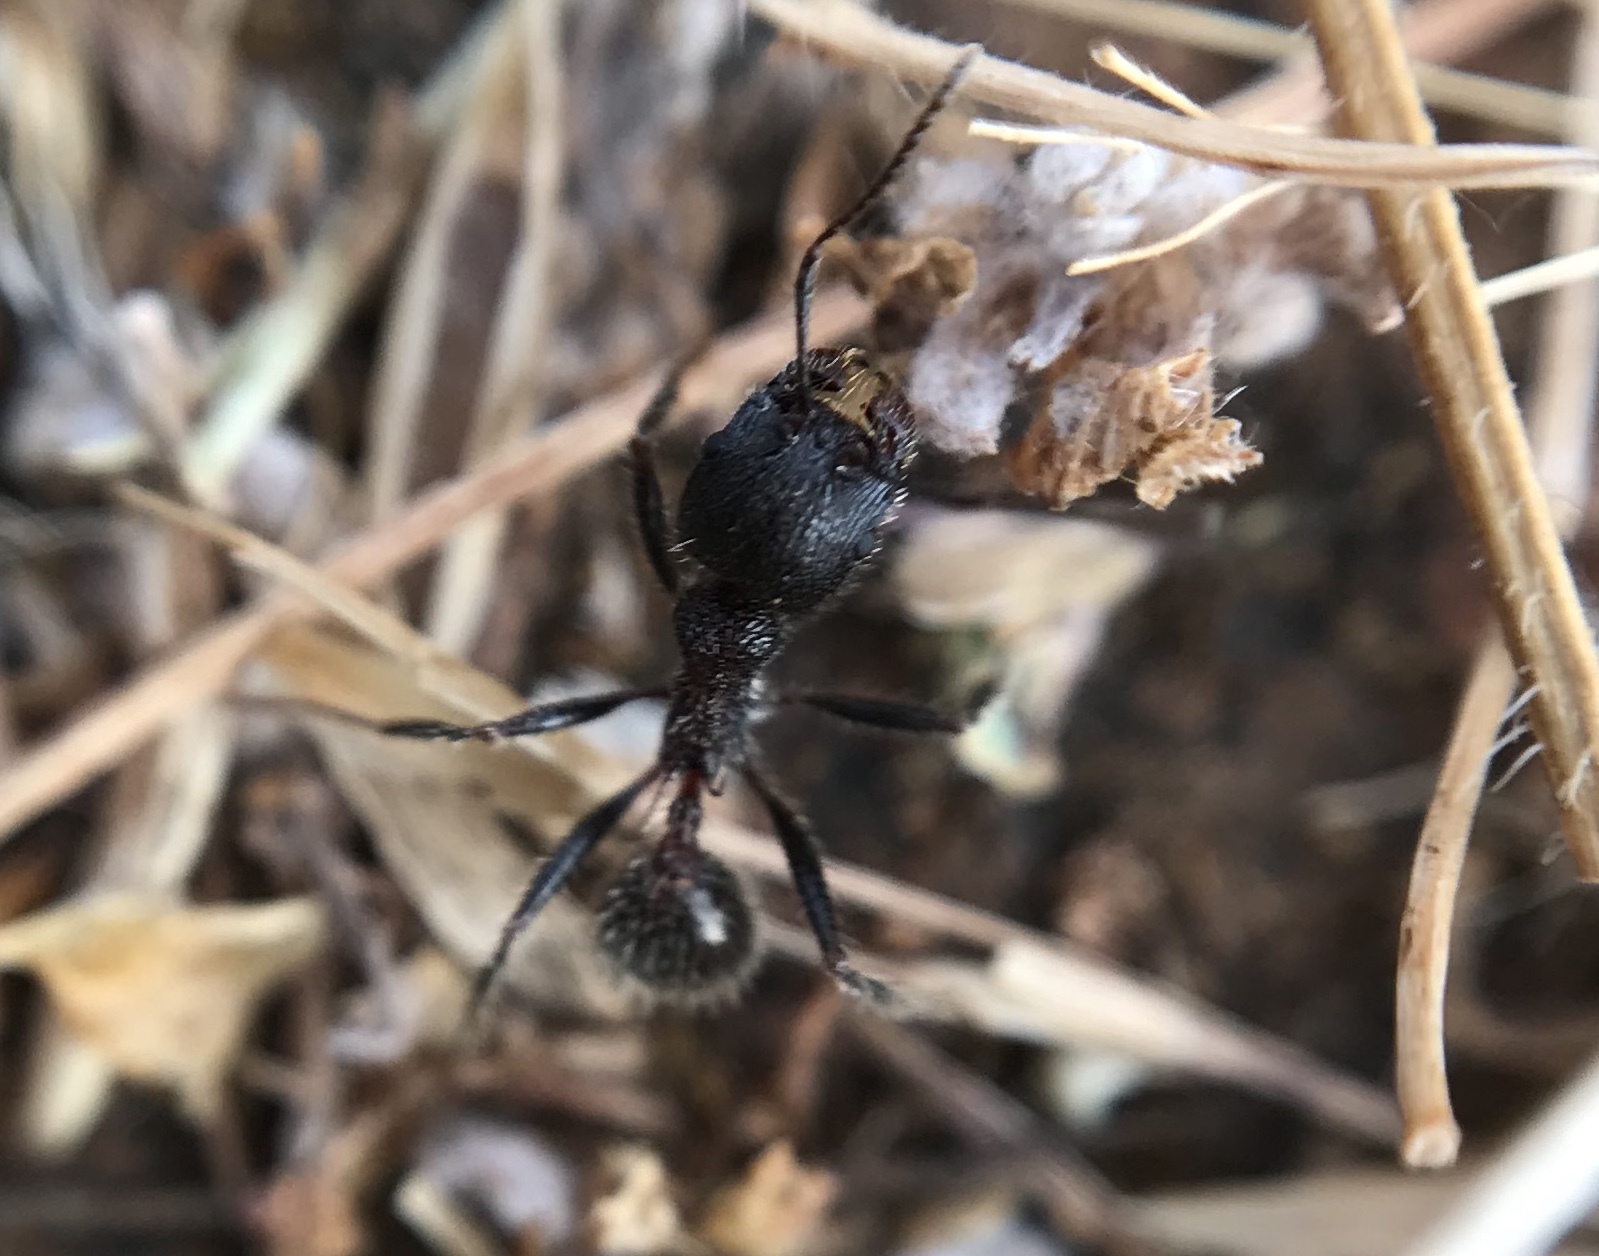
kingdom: Animalia
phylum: Arthropoda
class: Insecta
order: Hymenoptera
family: Formicidae
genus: Veromessor
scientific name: Veromessor andrei
